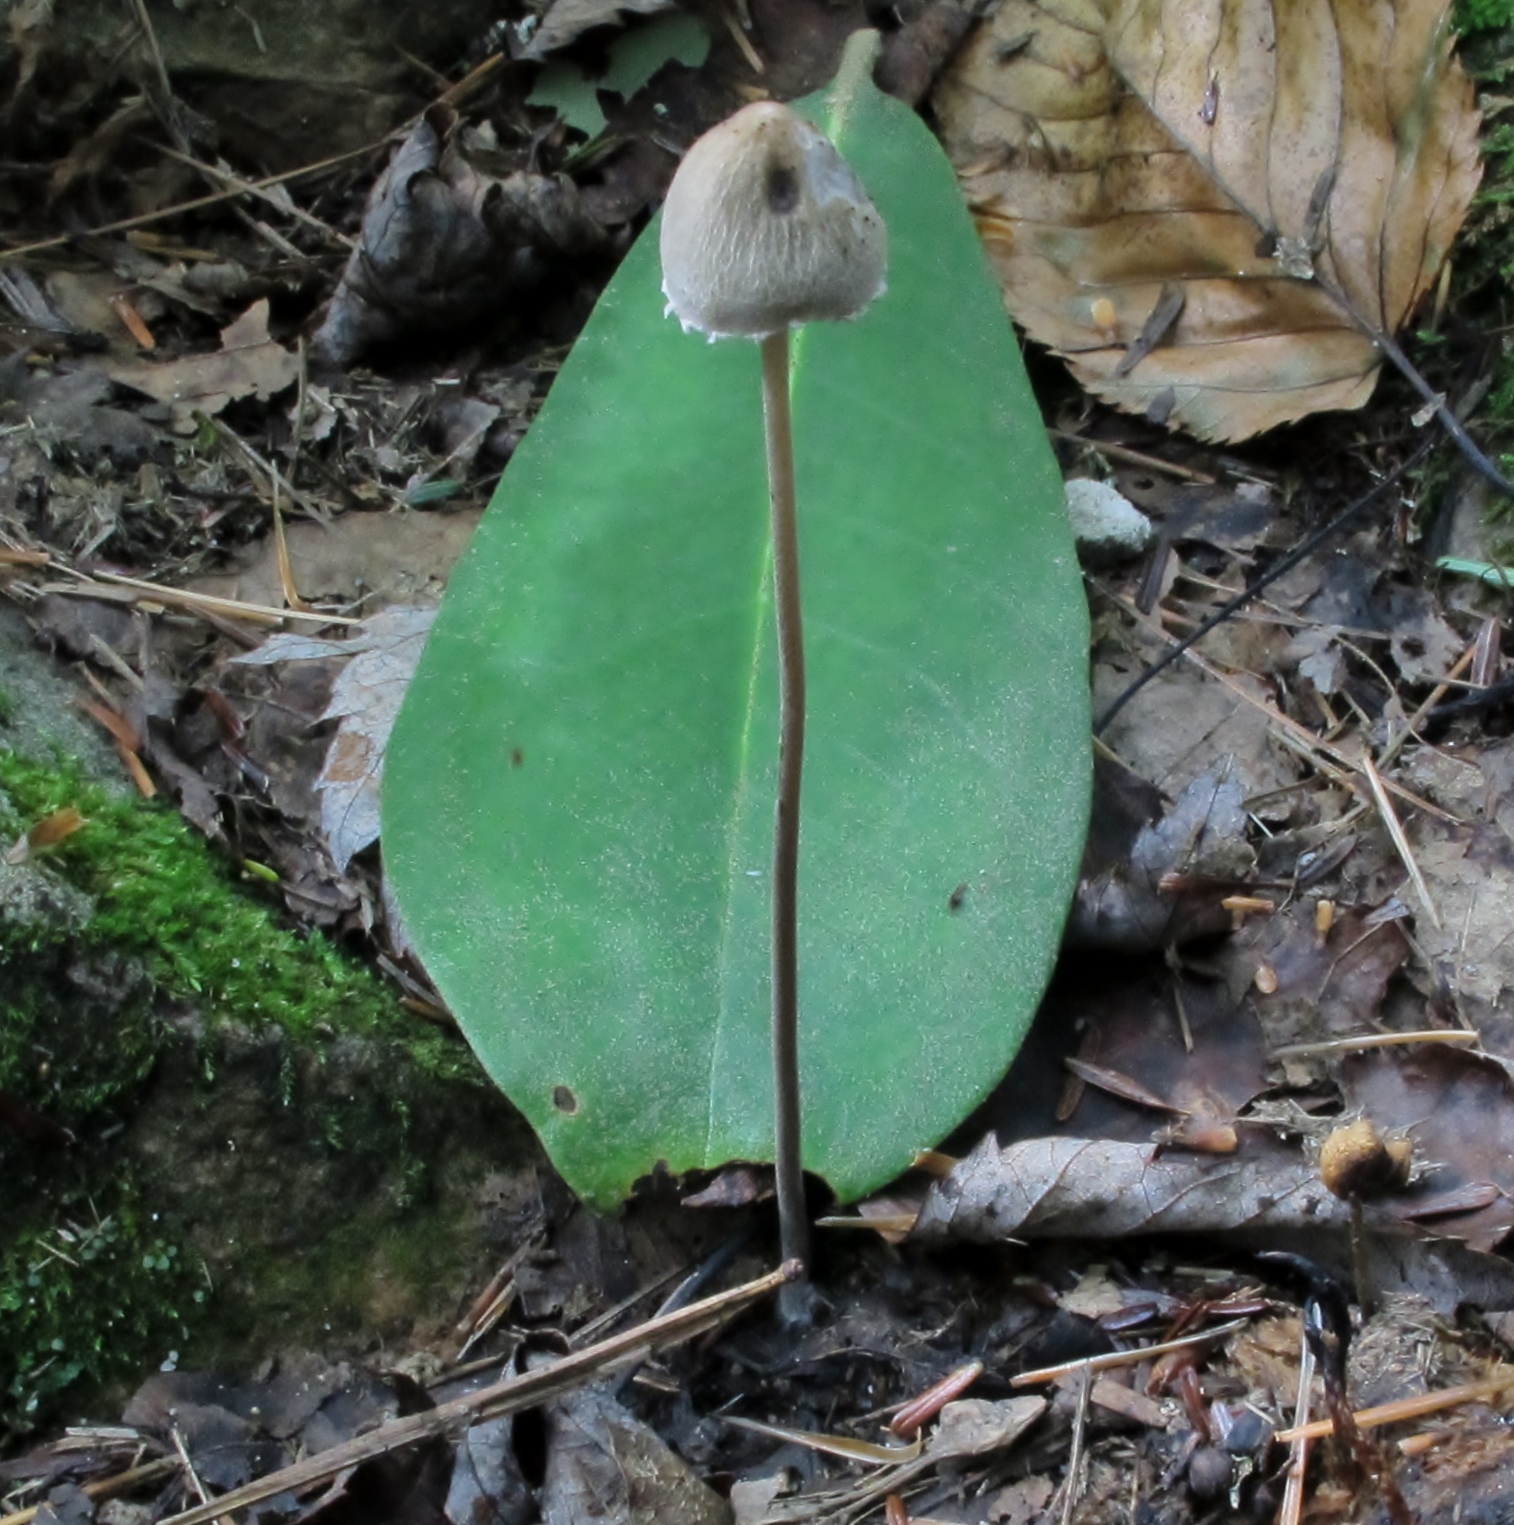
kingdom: Fungi
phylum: Basidiomycota
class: Agaricomycetes
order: Agaricales
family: Bolbitiaceae
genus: Panaeolus
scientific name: Panaeolus papilionaceus
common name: Petticoat mottlegill
